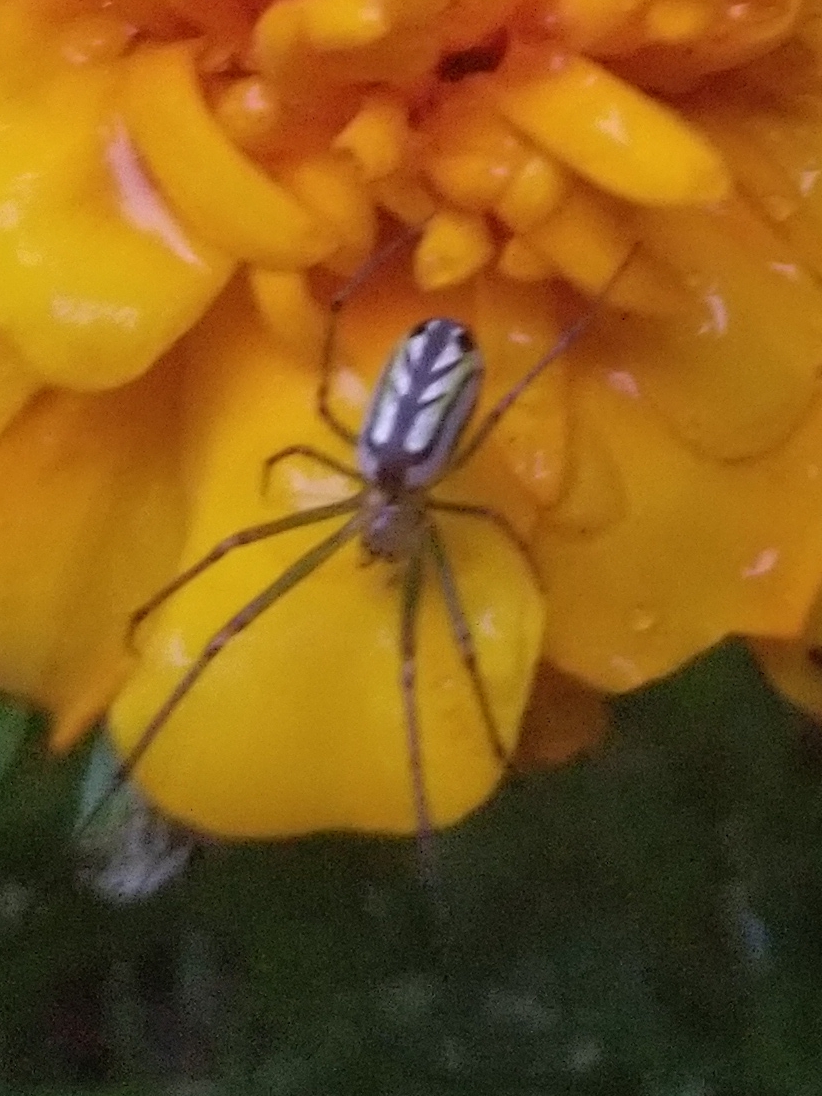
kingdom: Animalia
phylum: Arthropoda
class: Arachnida
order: Araneae
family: Tetragnathidae
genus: Leucauge
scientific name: Leucauge venusta
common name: Longjawed orb weavers
